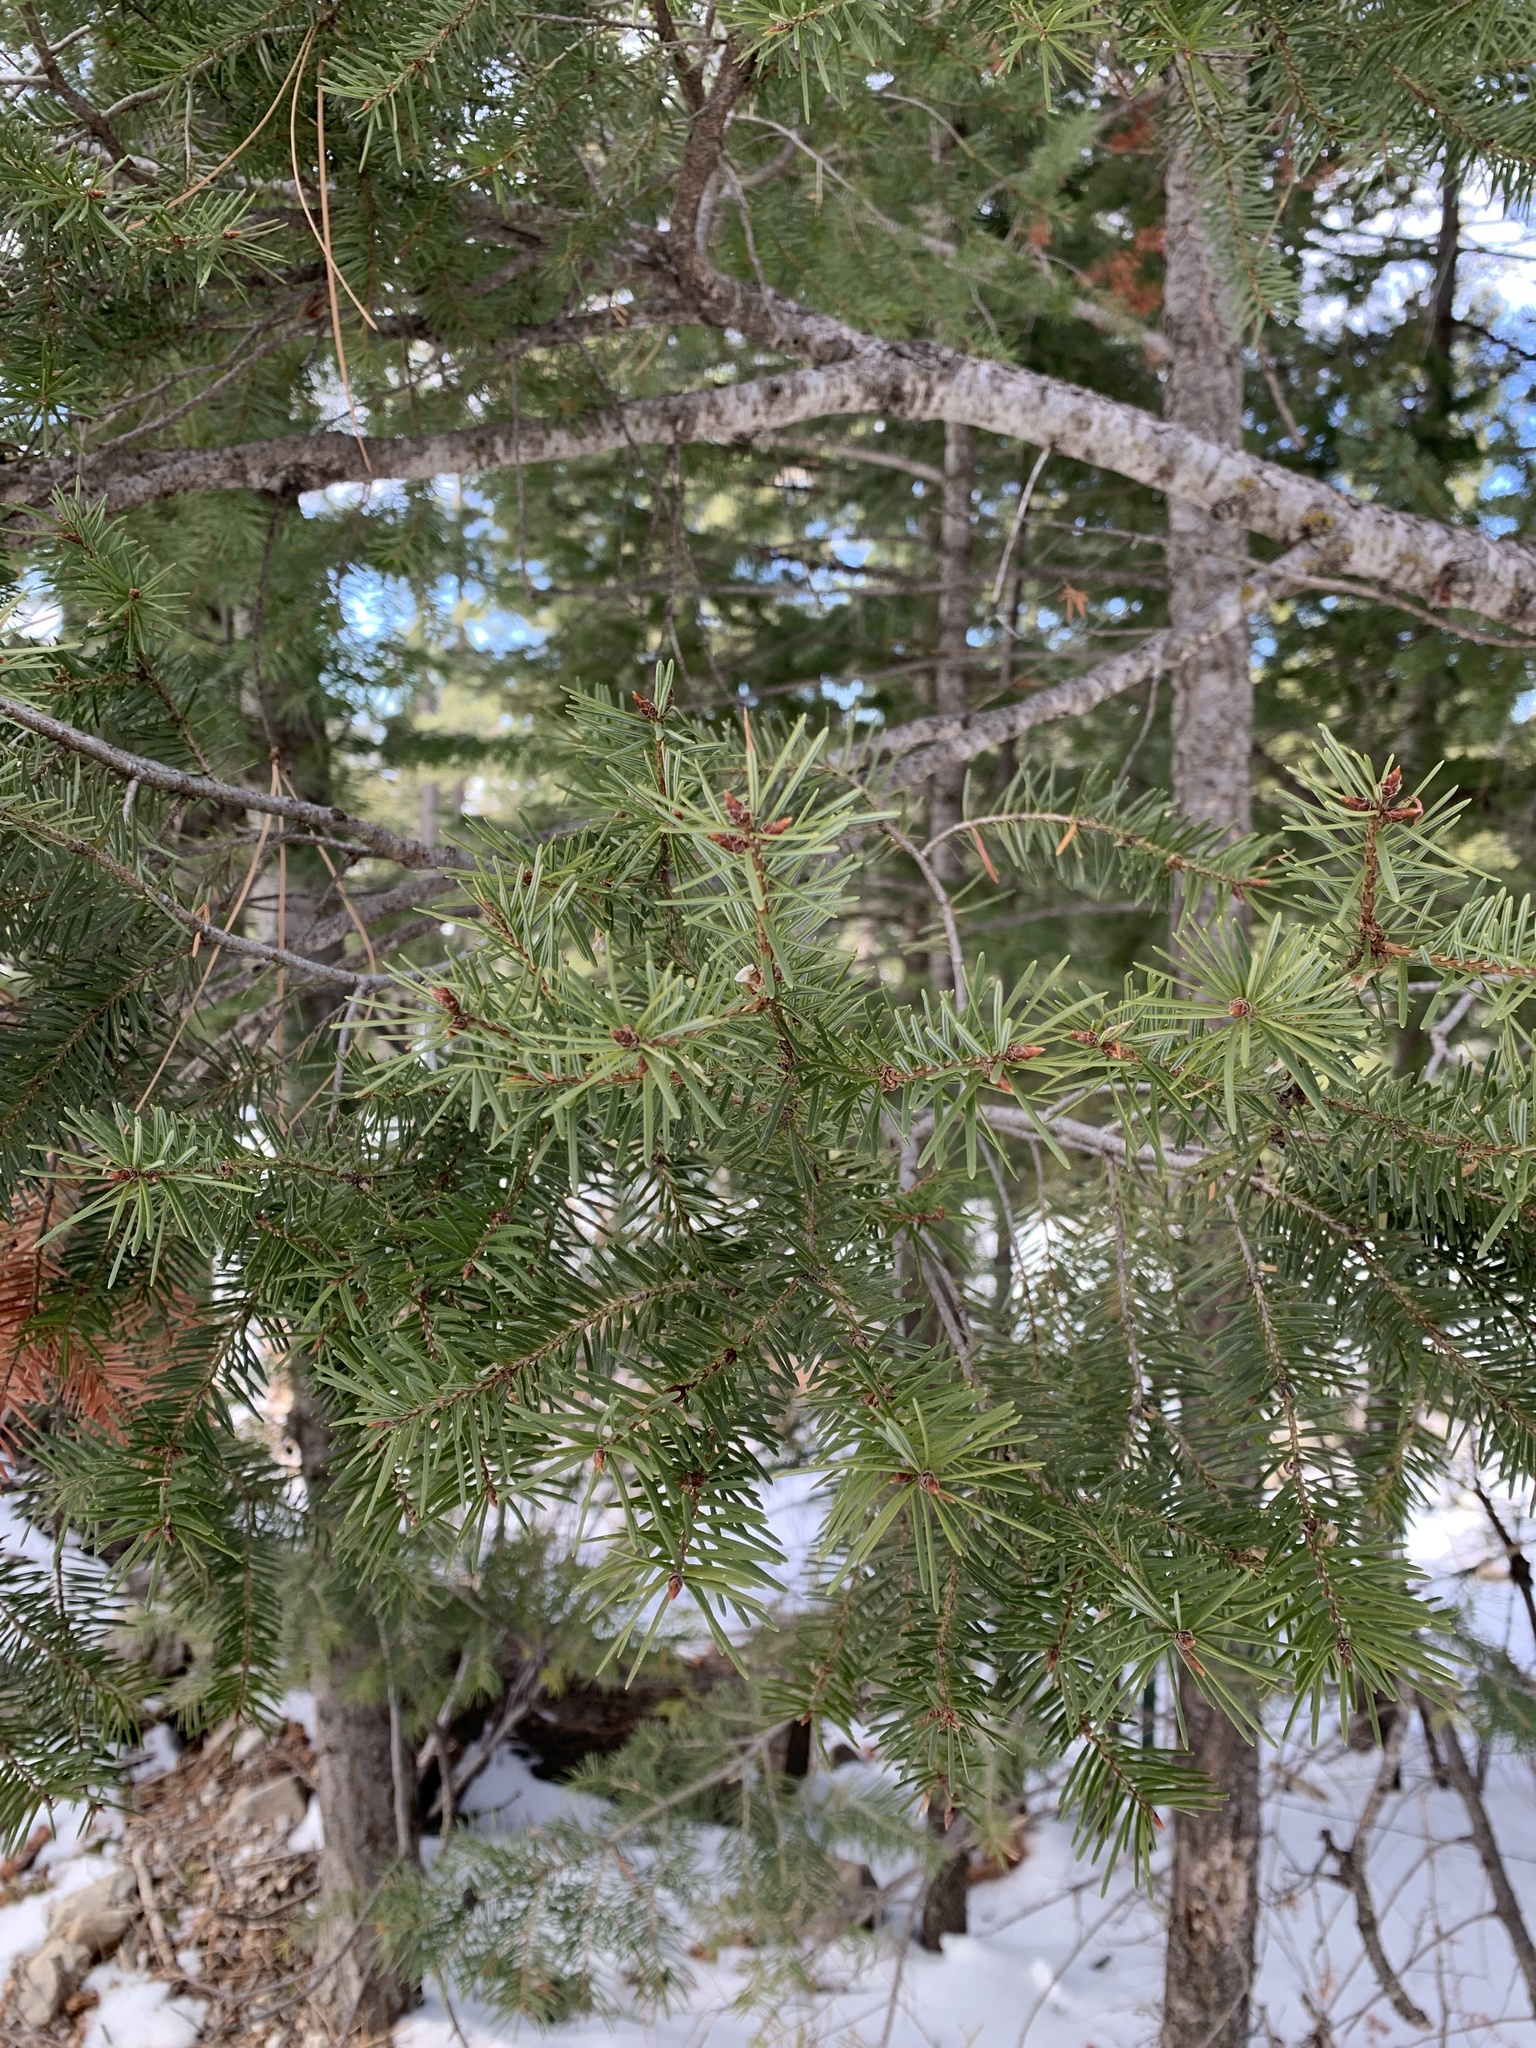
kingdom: Plantae
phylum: Tracheophyta
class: Pinopsida
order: Pinales
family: Pinaceae
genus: Pseudotsuga
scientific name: Pseudotsuga menziesii
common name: Douglas fir
